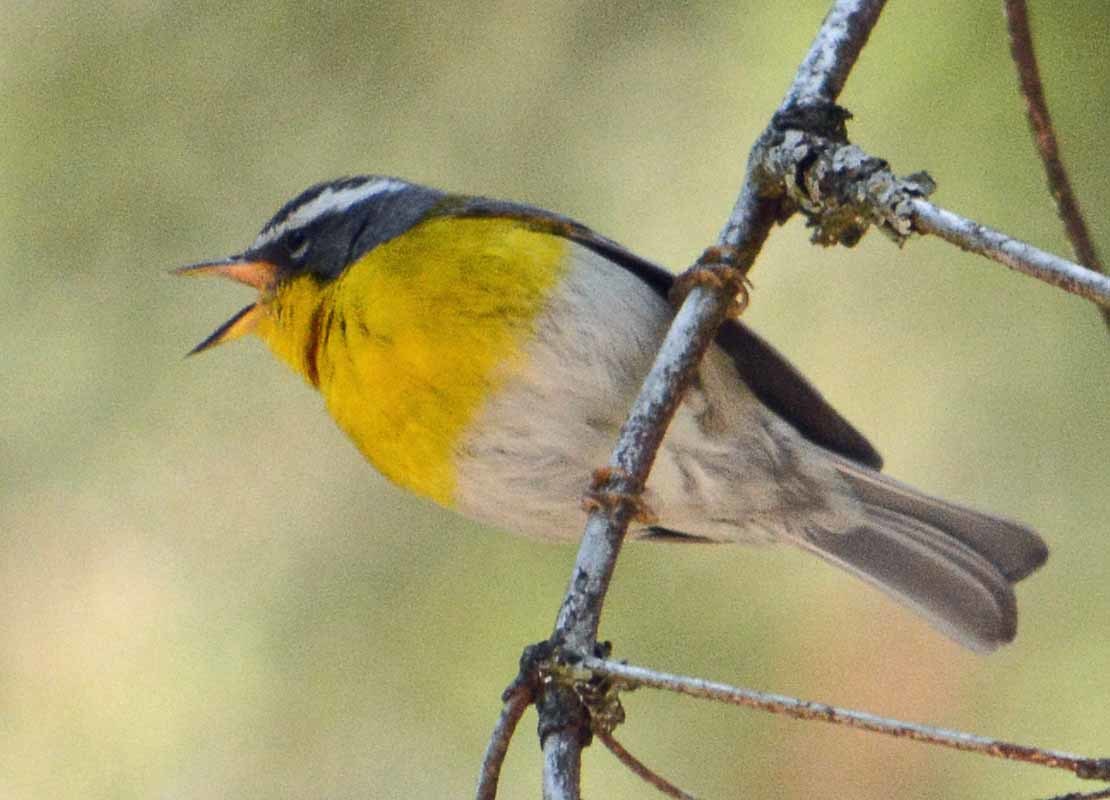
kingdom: Animalia
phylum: Chordata
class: Aves
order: Passeriformes
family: Parulidae
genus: Oreothlypis
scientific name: Oreothlypis superciliosa
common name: Crescent-chested warbler
